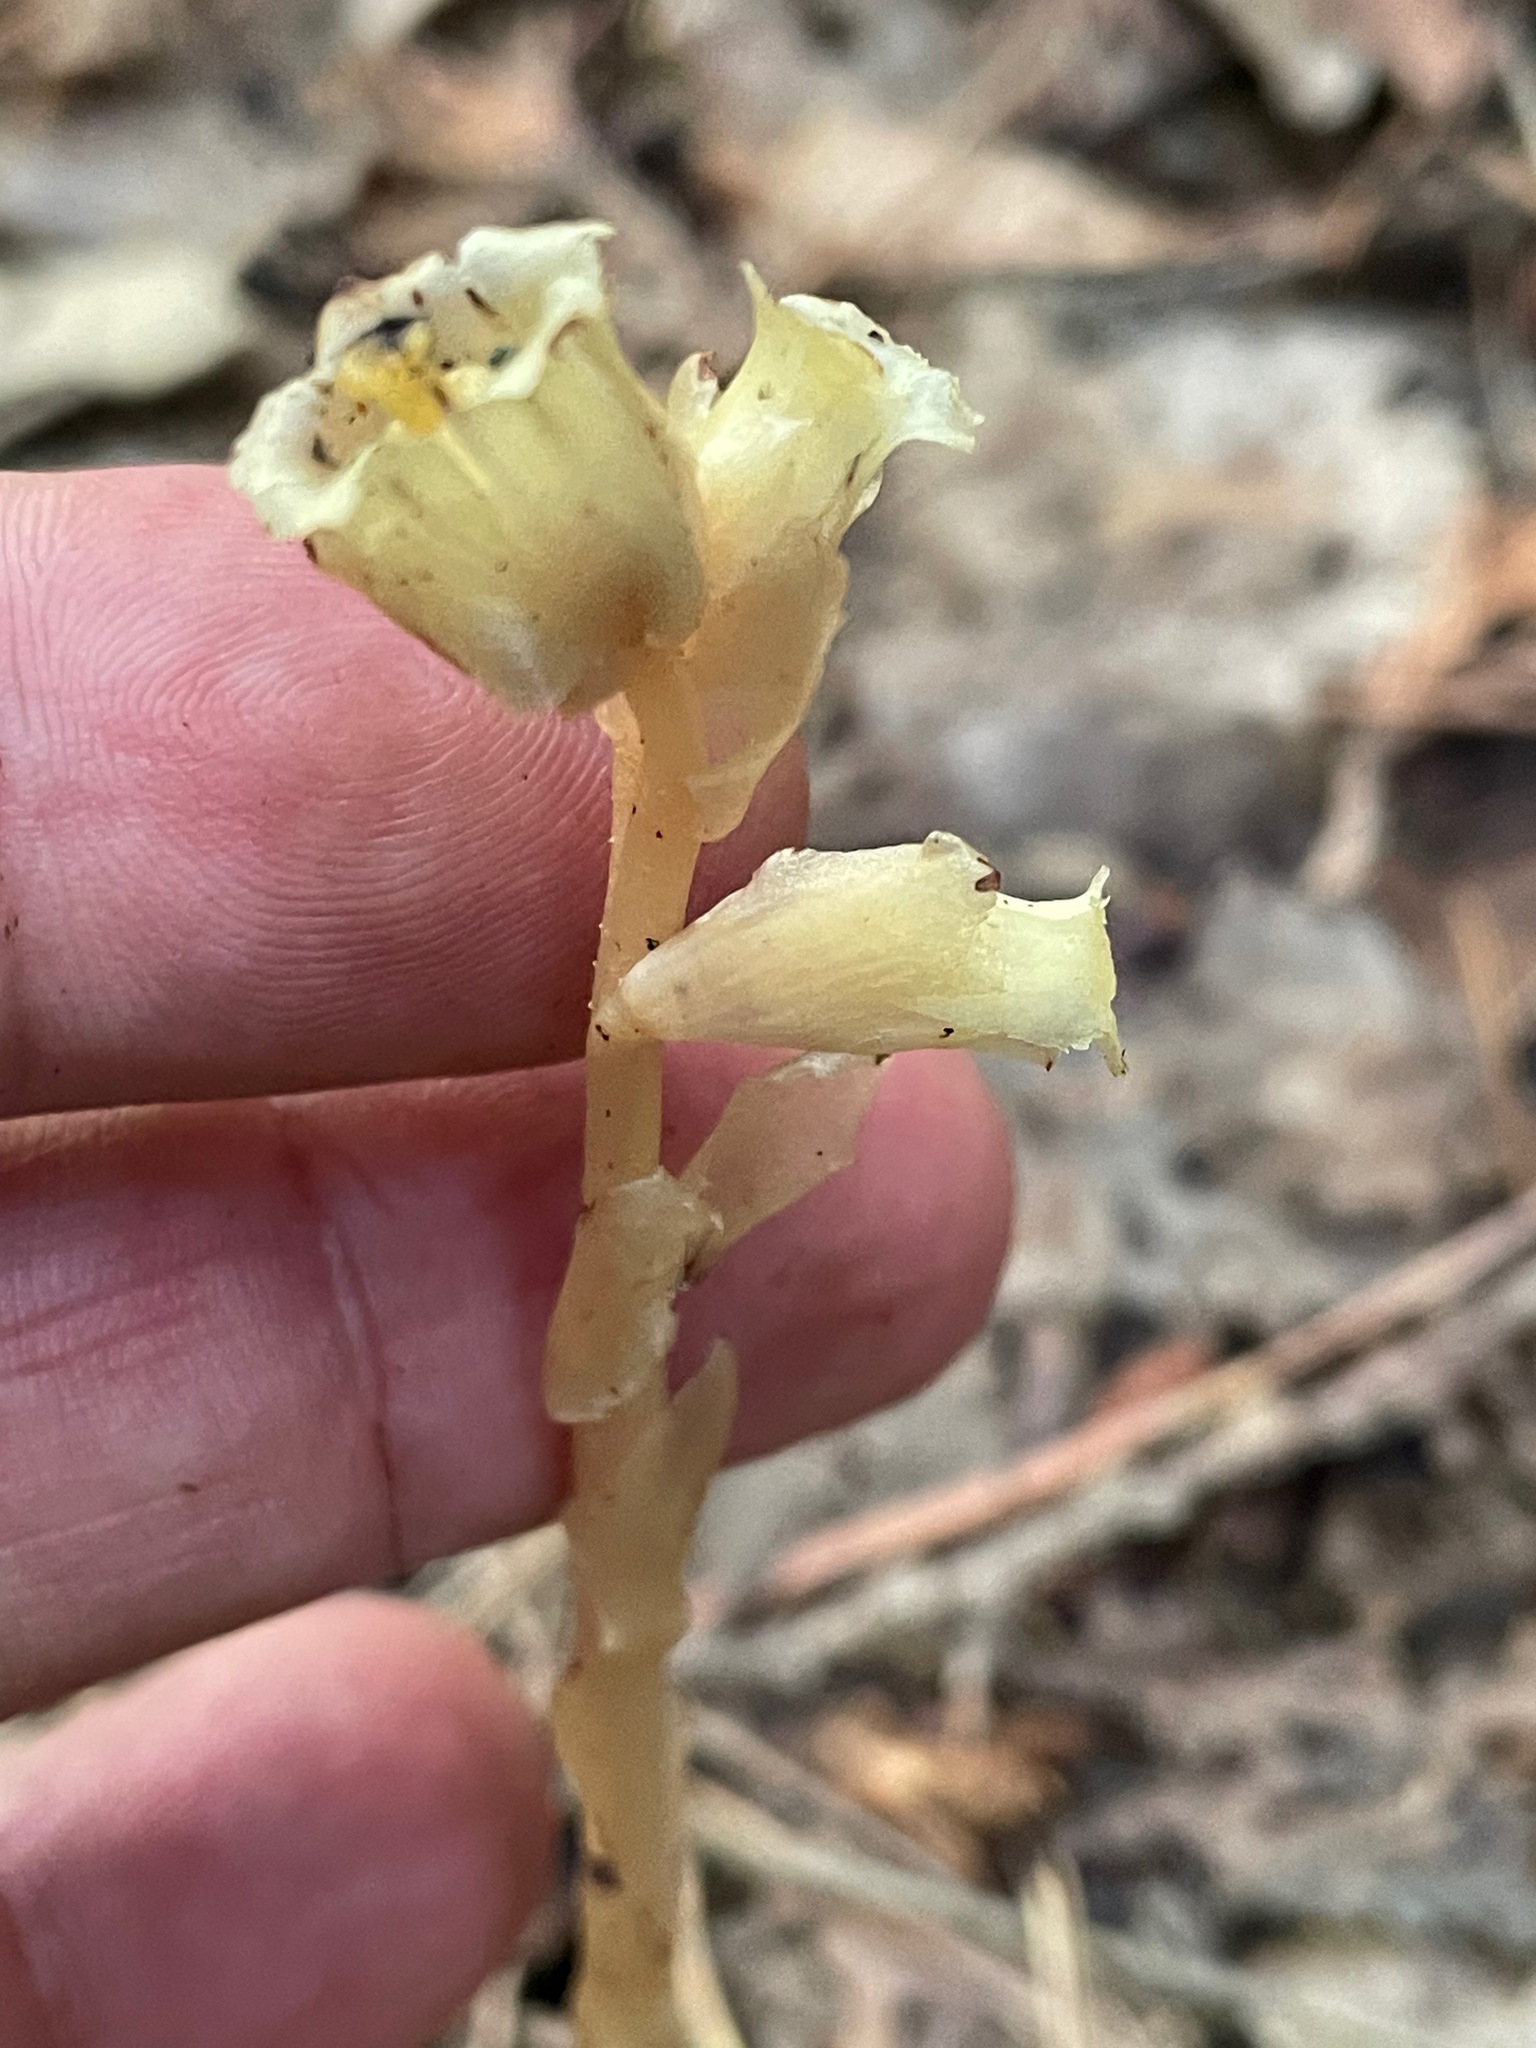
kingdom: Plantae
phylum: Tracheophyta
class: Magnoliopsida
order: Ericales
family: Ericaceae
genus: Hypopitys
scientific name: Hypopitys monotropa
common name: Yellow bird's-nest
